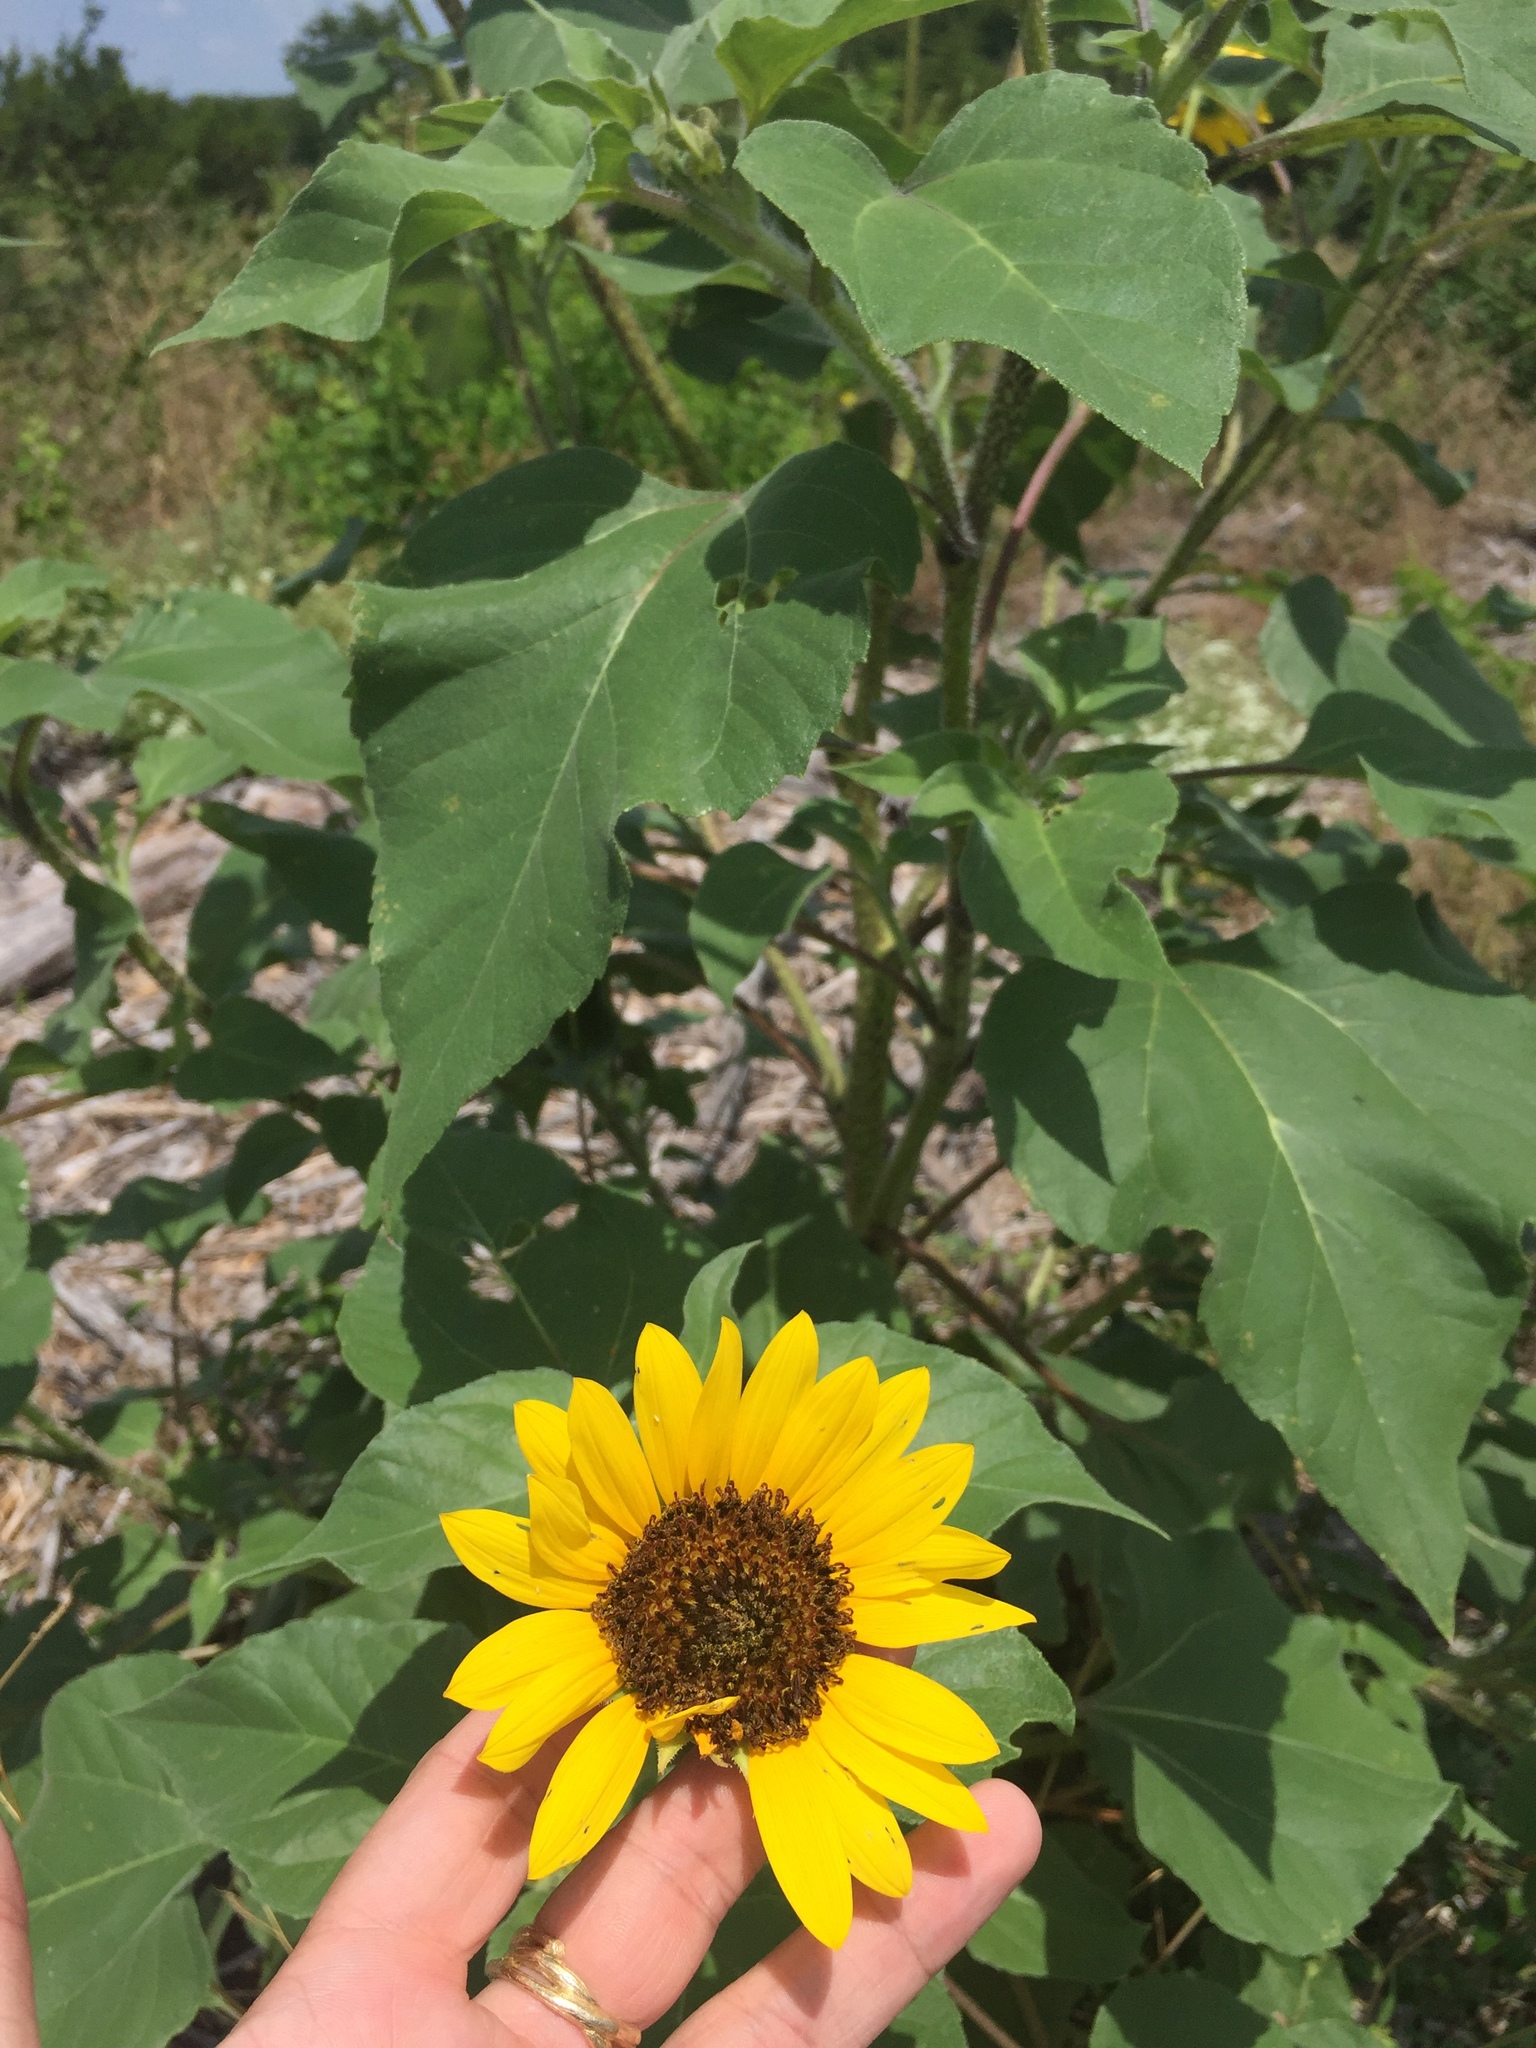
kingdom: Plantae
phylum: Tracheophyta
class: Magnoliopsida
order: Asterales
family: Asteraceae
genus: Helianthus
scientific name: Helianthus annuus
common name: Sunflower
